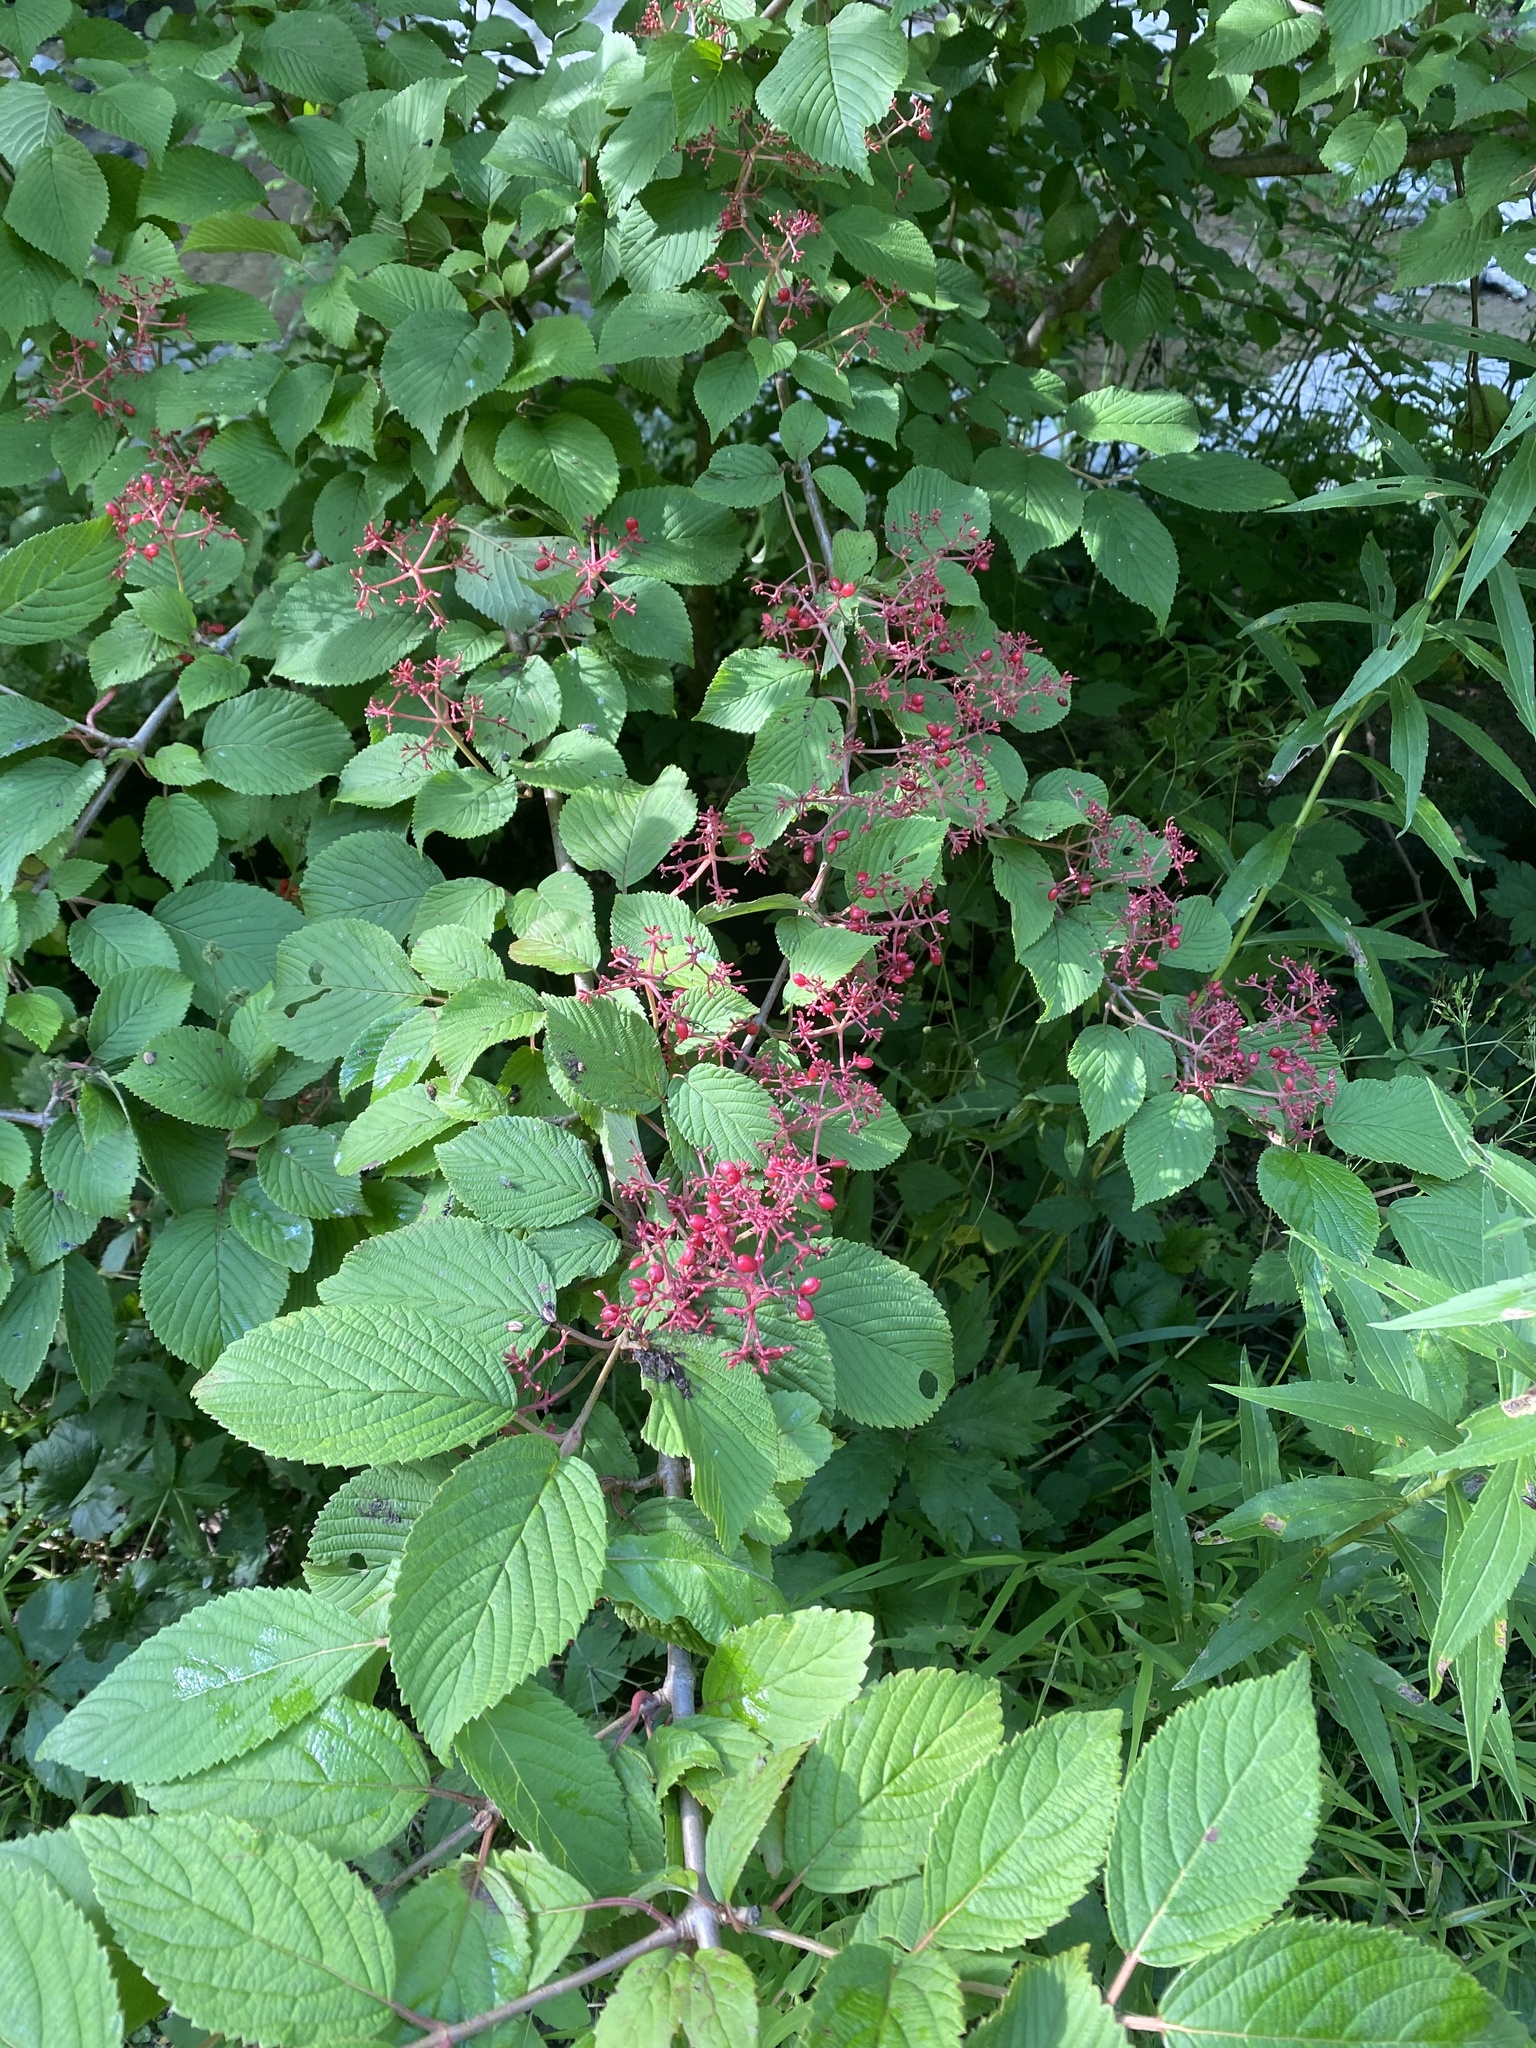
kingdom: Plantae
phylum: Tracheophyta
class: Magnoliopsida
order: Dipsacales
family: Viburnaceae
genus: Viburnum
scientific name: Viburnum plicatum
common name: Japanese snowball
